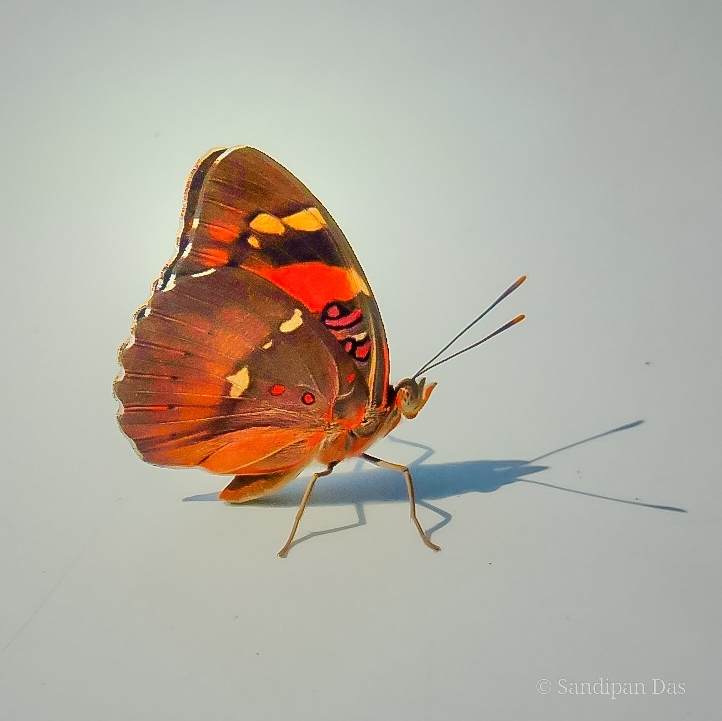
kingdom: Animalia
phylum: Arthropoda
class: Insecta
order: Lepidoptera
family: Nymphalidae
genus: Euthalia
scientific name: Euthalia nais
